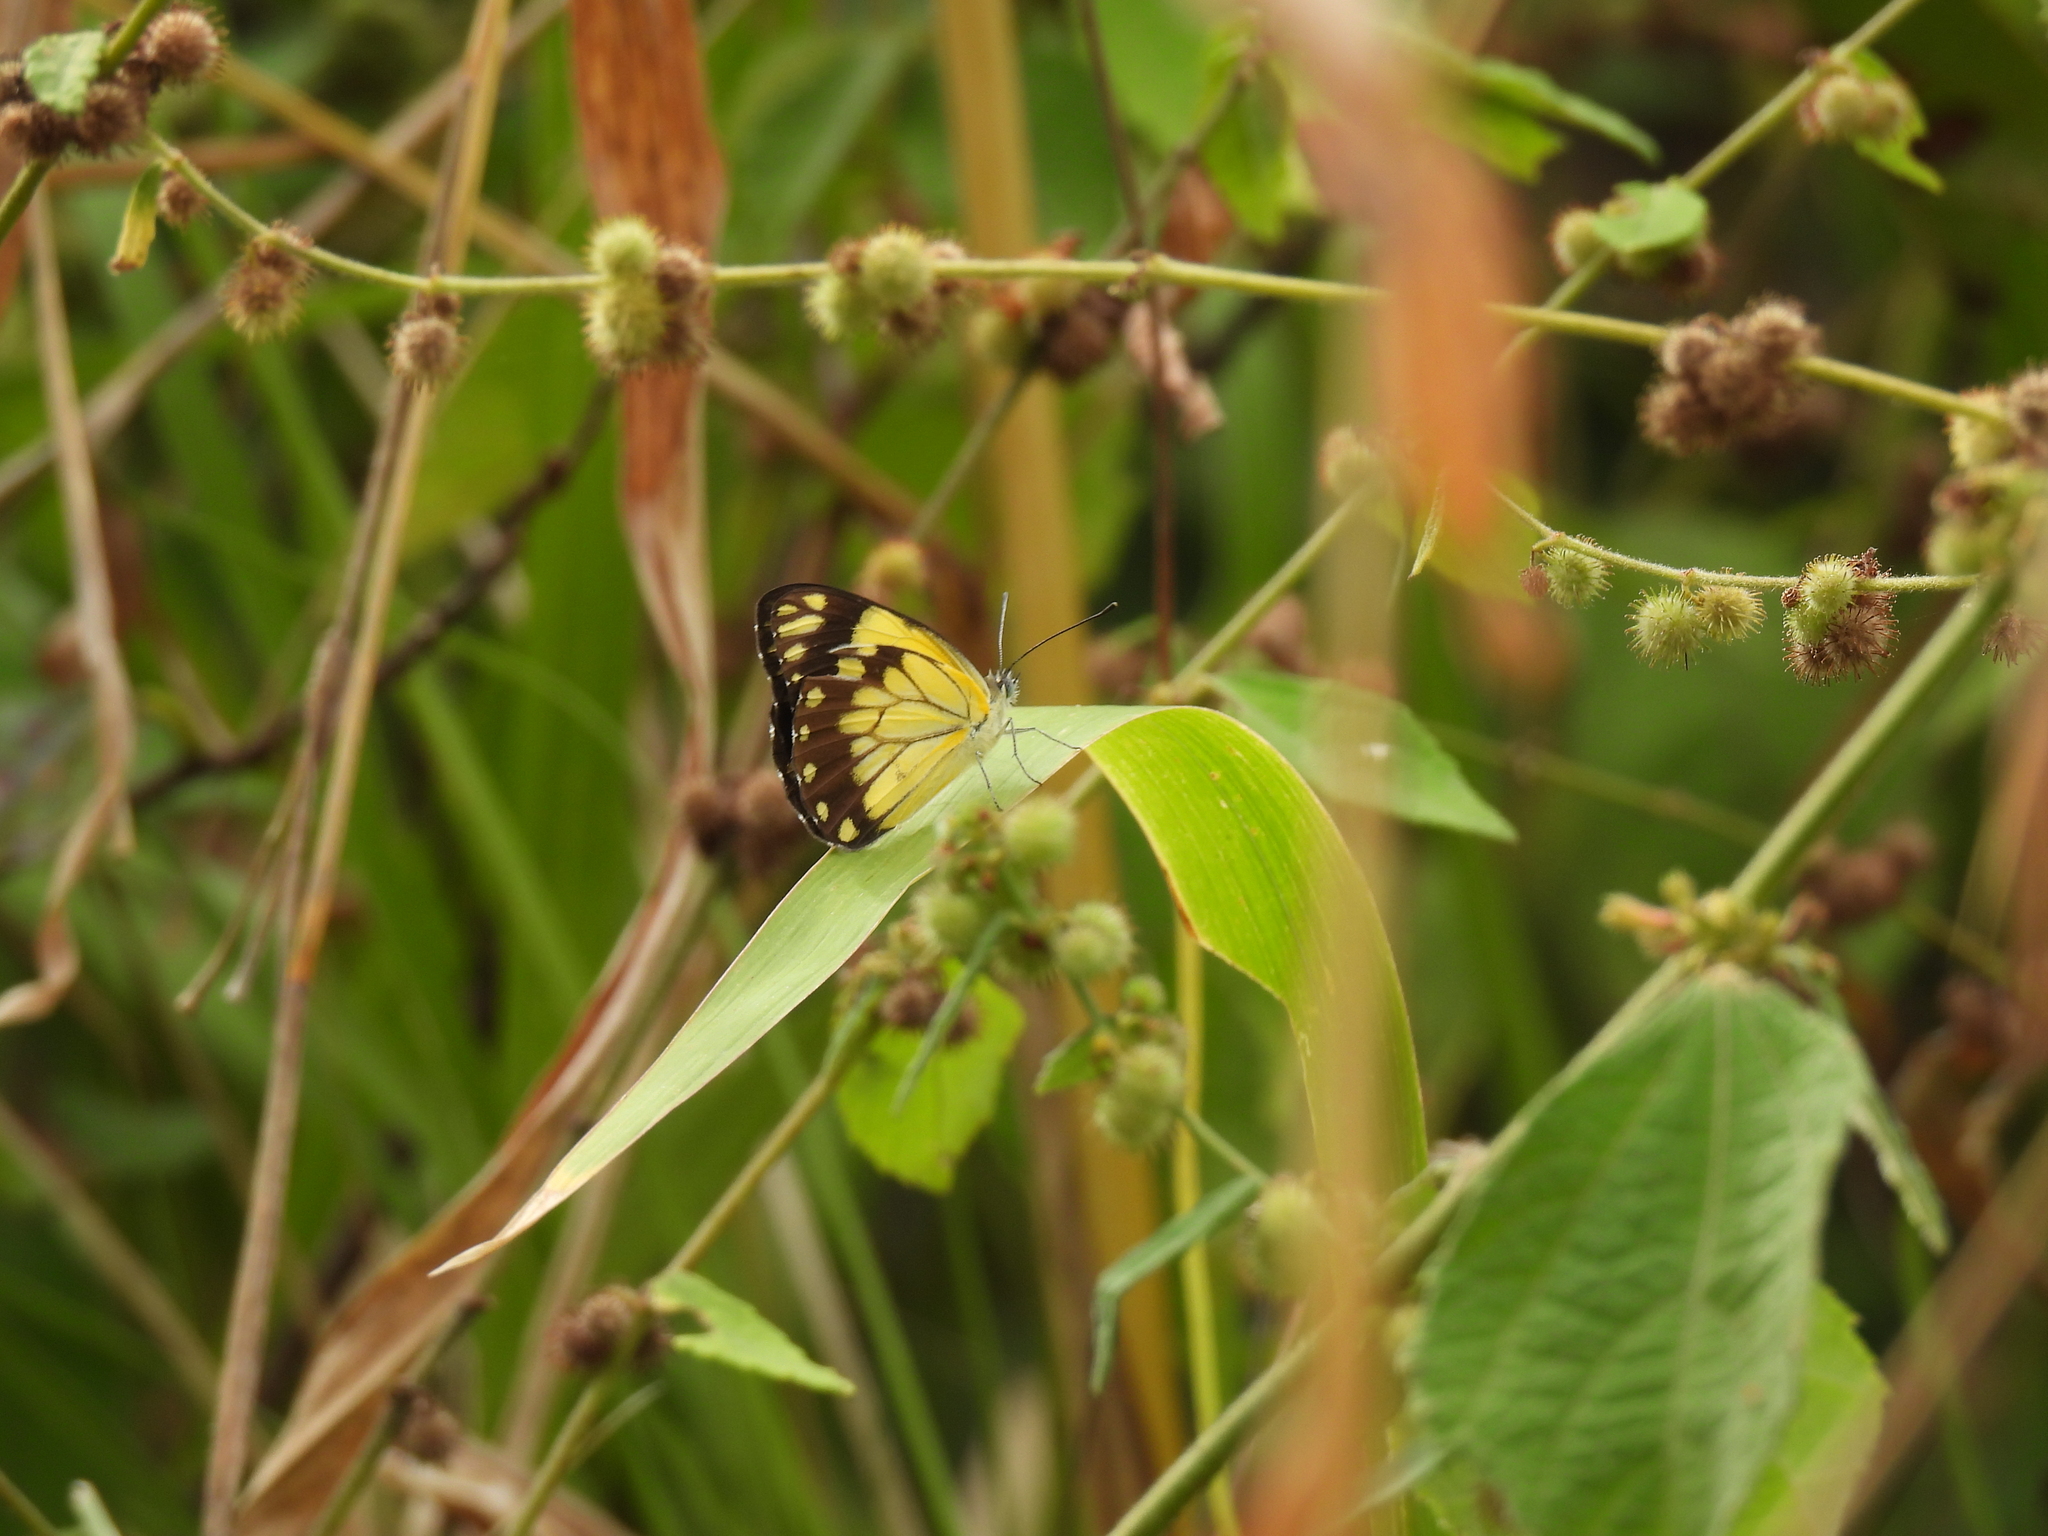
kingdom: Animalia
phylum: Arthropoda
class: Insecta
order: Lepidoptera
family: Pieridae
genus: Belenois
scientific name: Belenois creona
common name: African caper white
